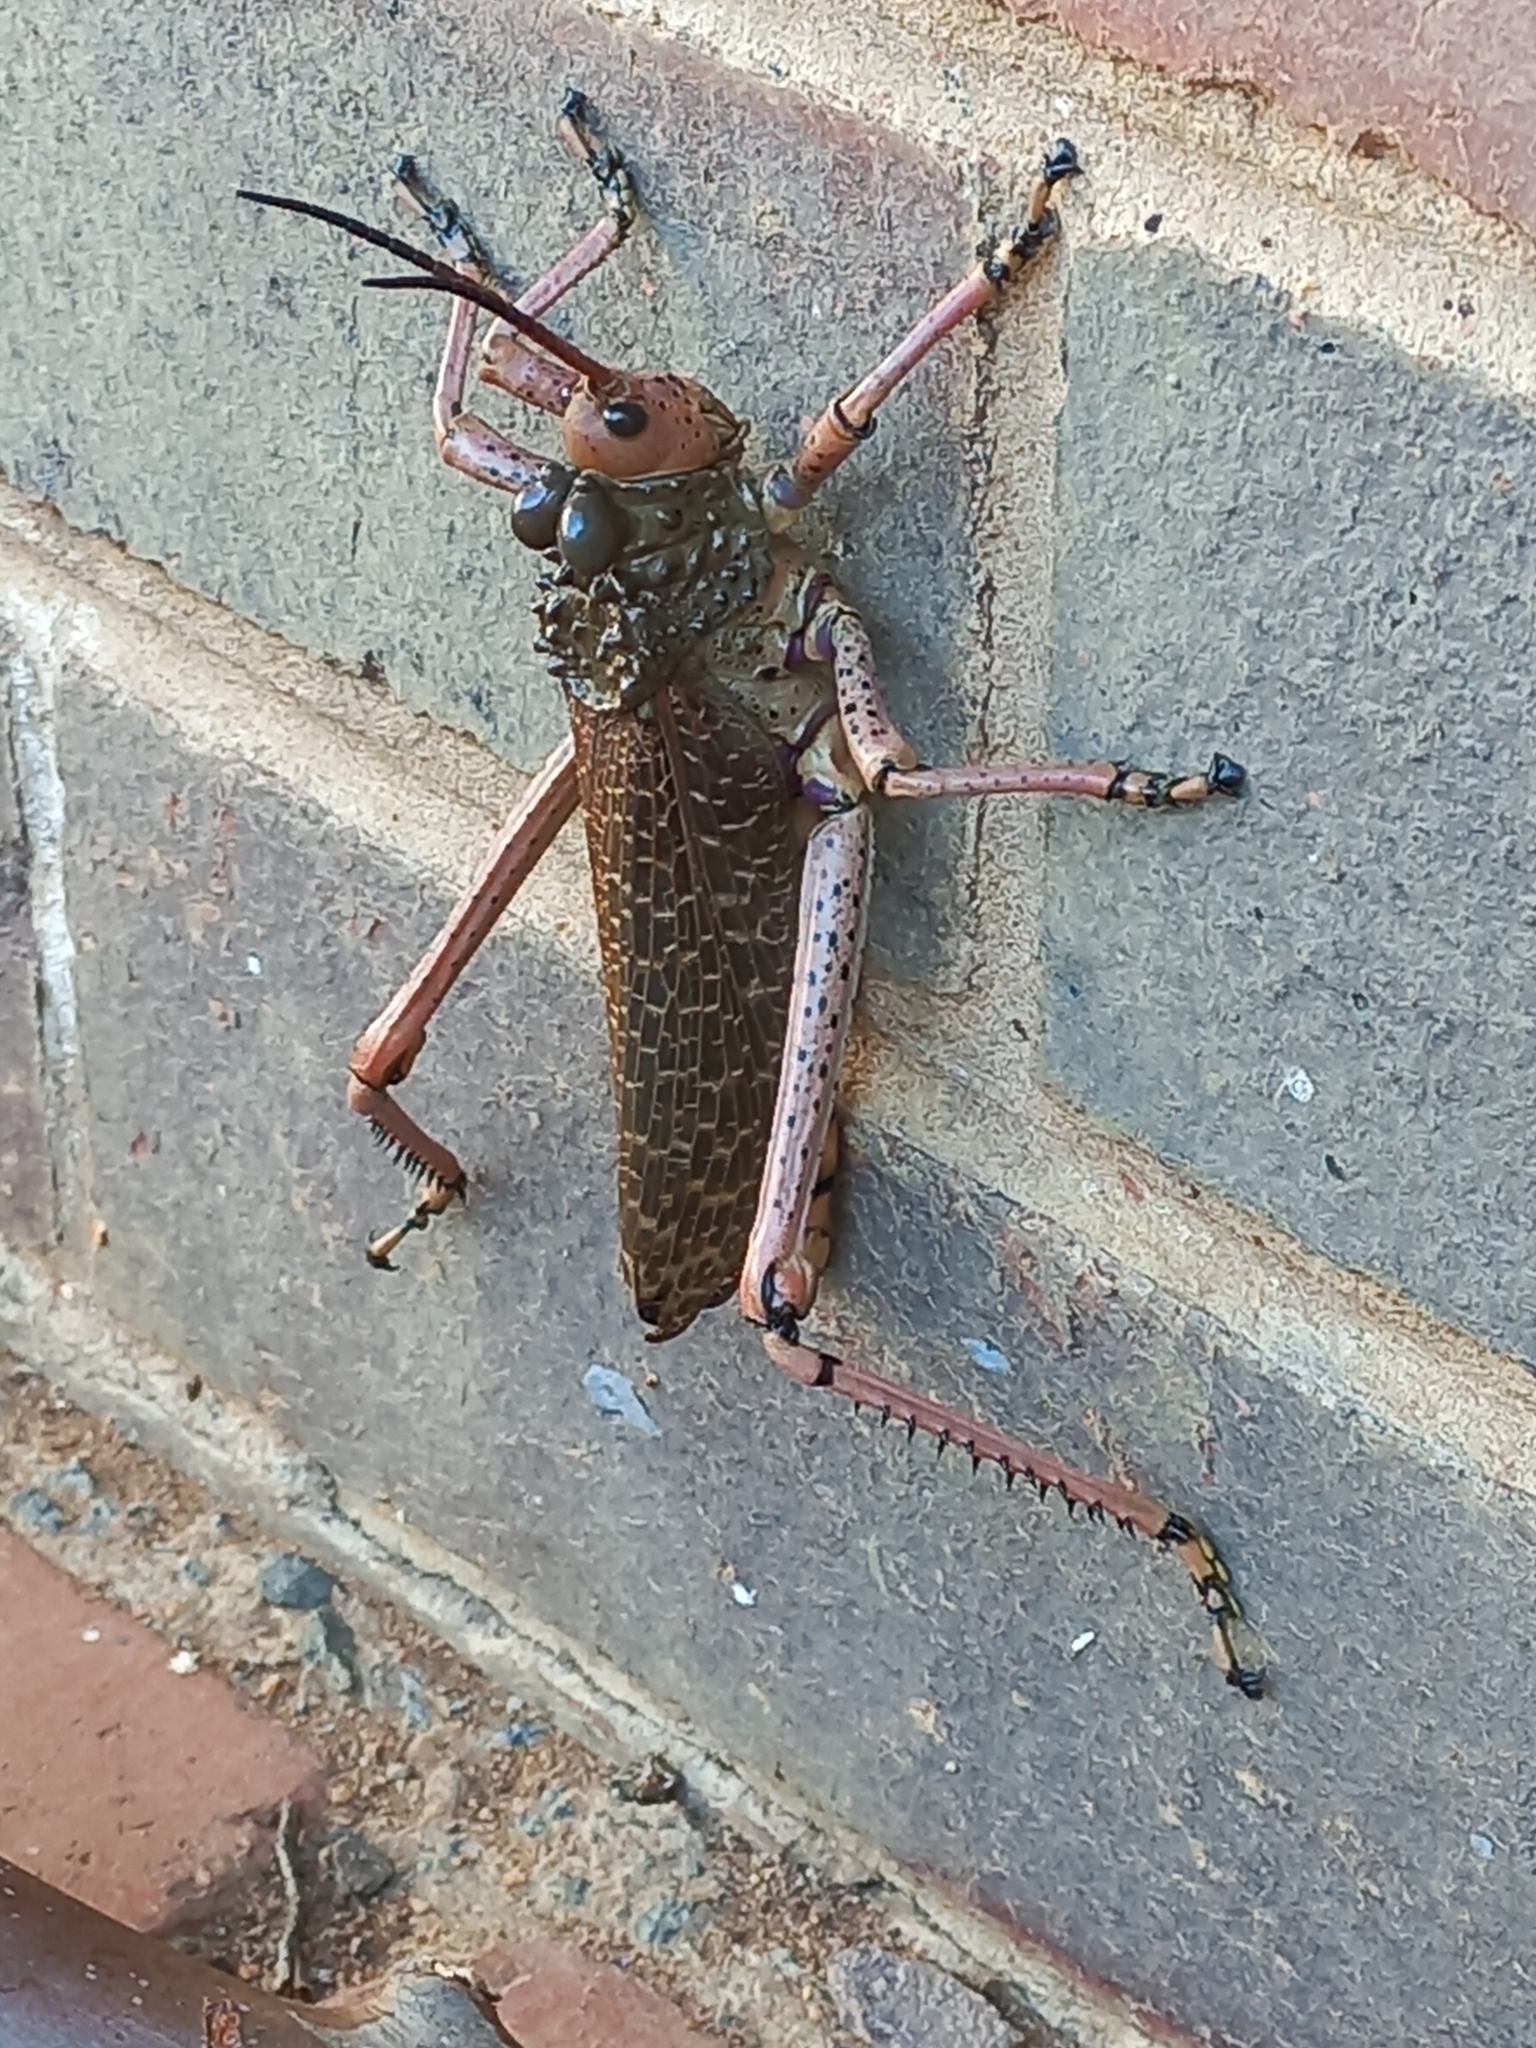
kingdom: Animalia
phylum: Arthropoda
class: Insecta
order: Orthoptera
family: Pyrgomorphidae
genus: Phymateus
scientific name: Phymateus leprosus
